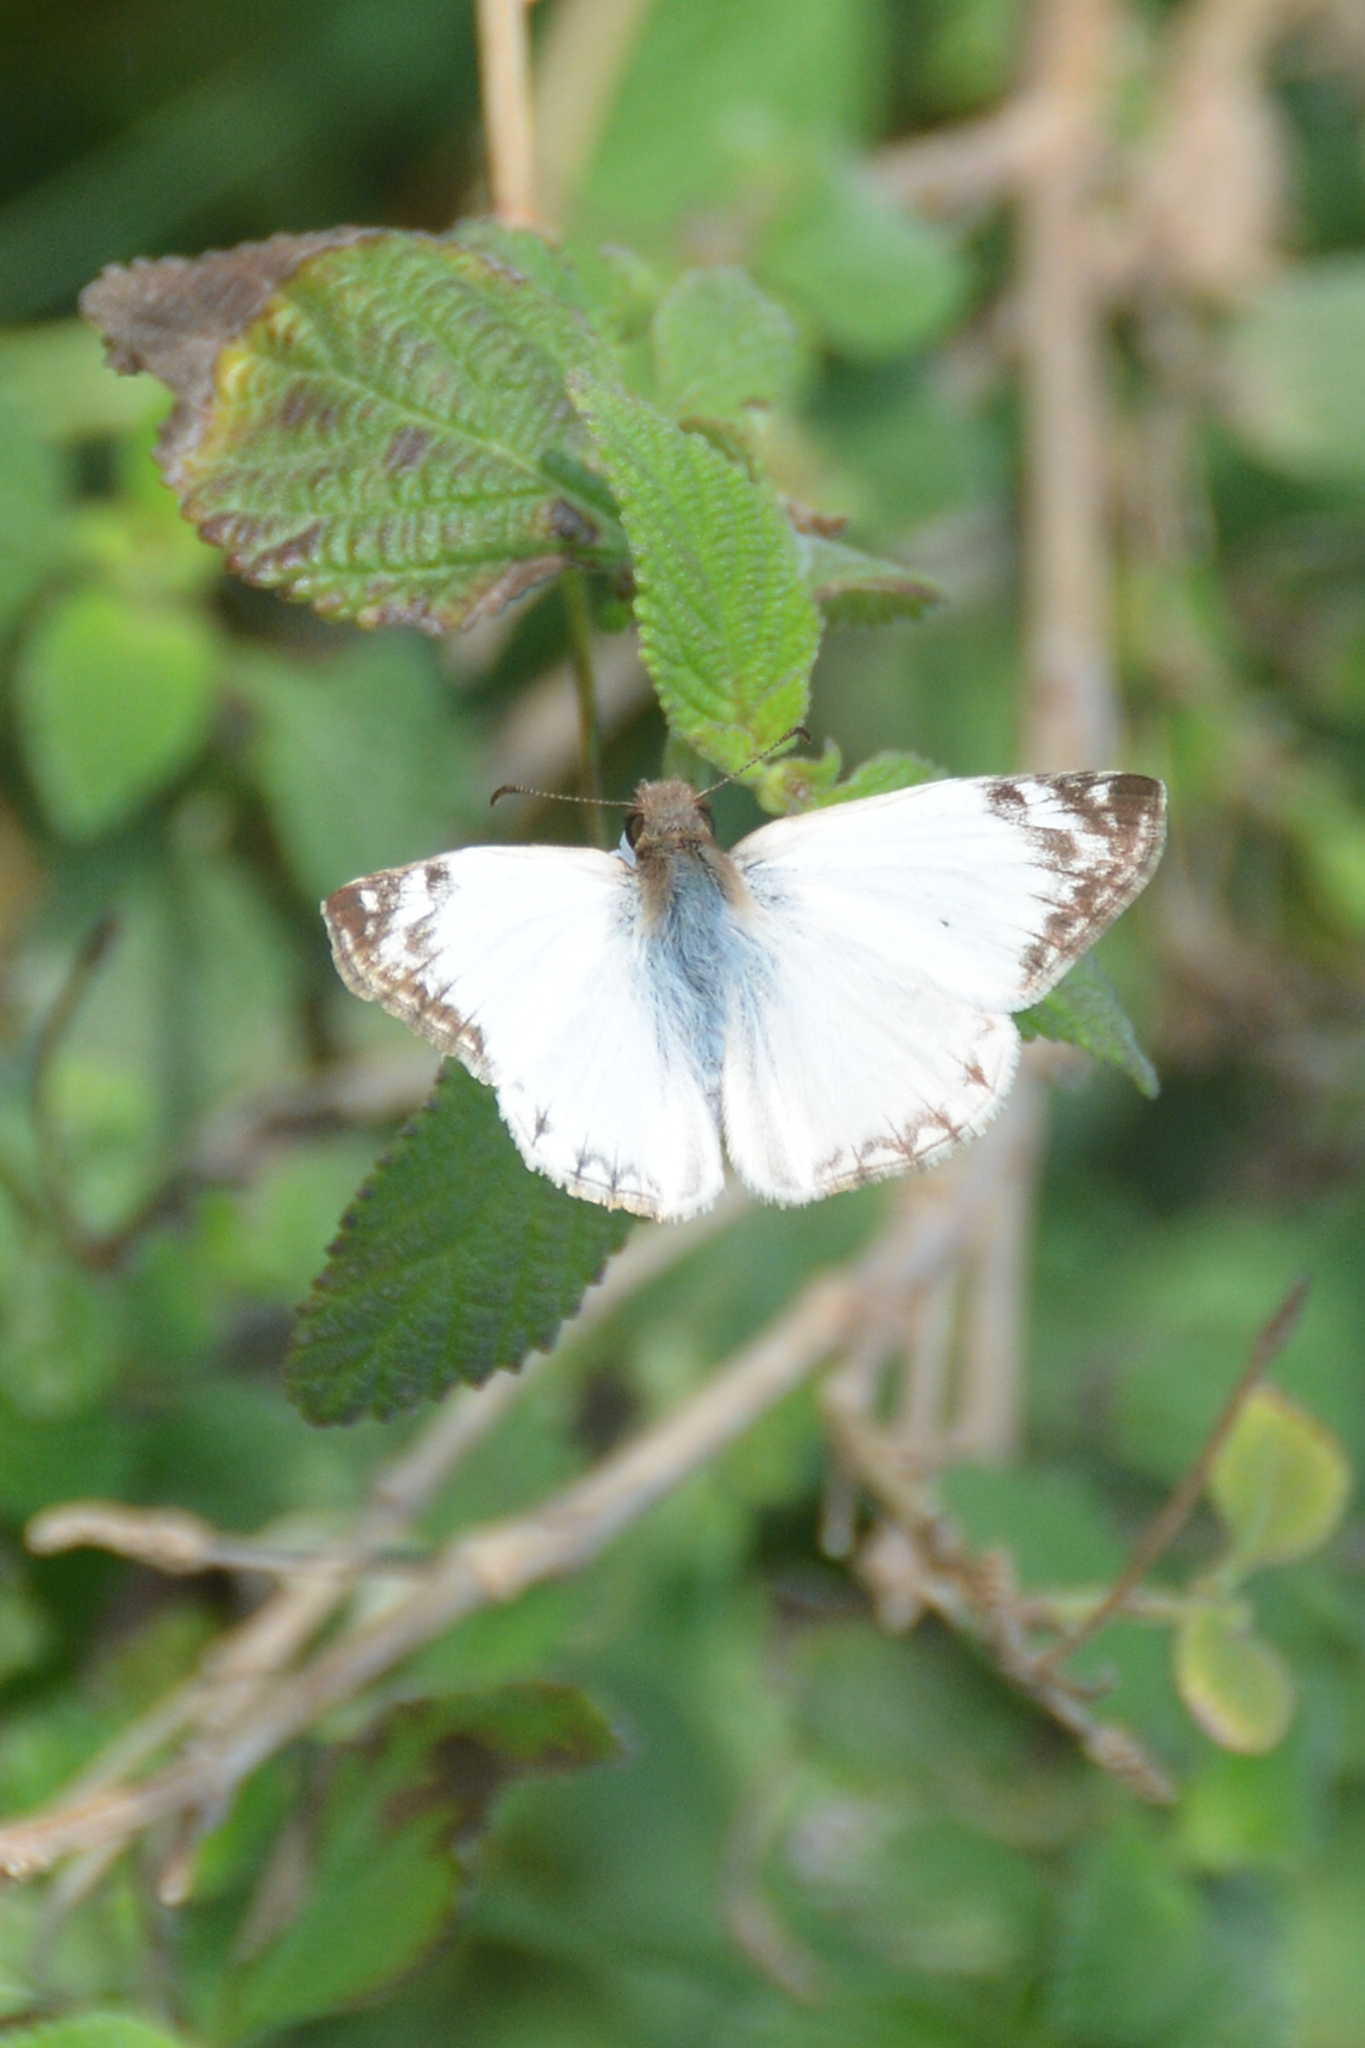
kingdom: Animalia
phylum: Arthropoda
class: Insecta
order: Lepidoptera
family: Hesperiidae
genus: Heliopetes
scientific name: Heliopetes laviana
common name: Laviana white-skipper
